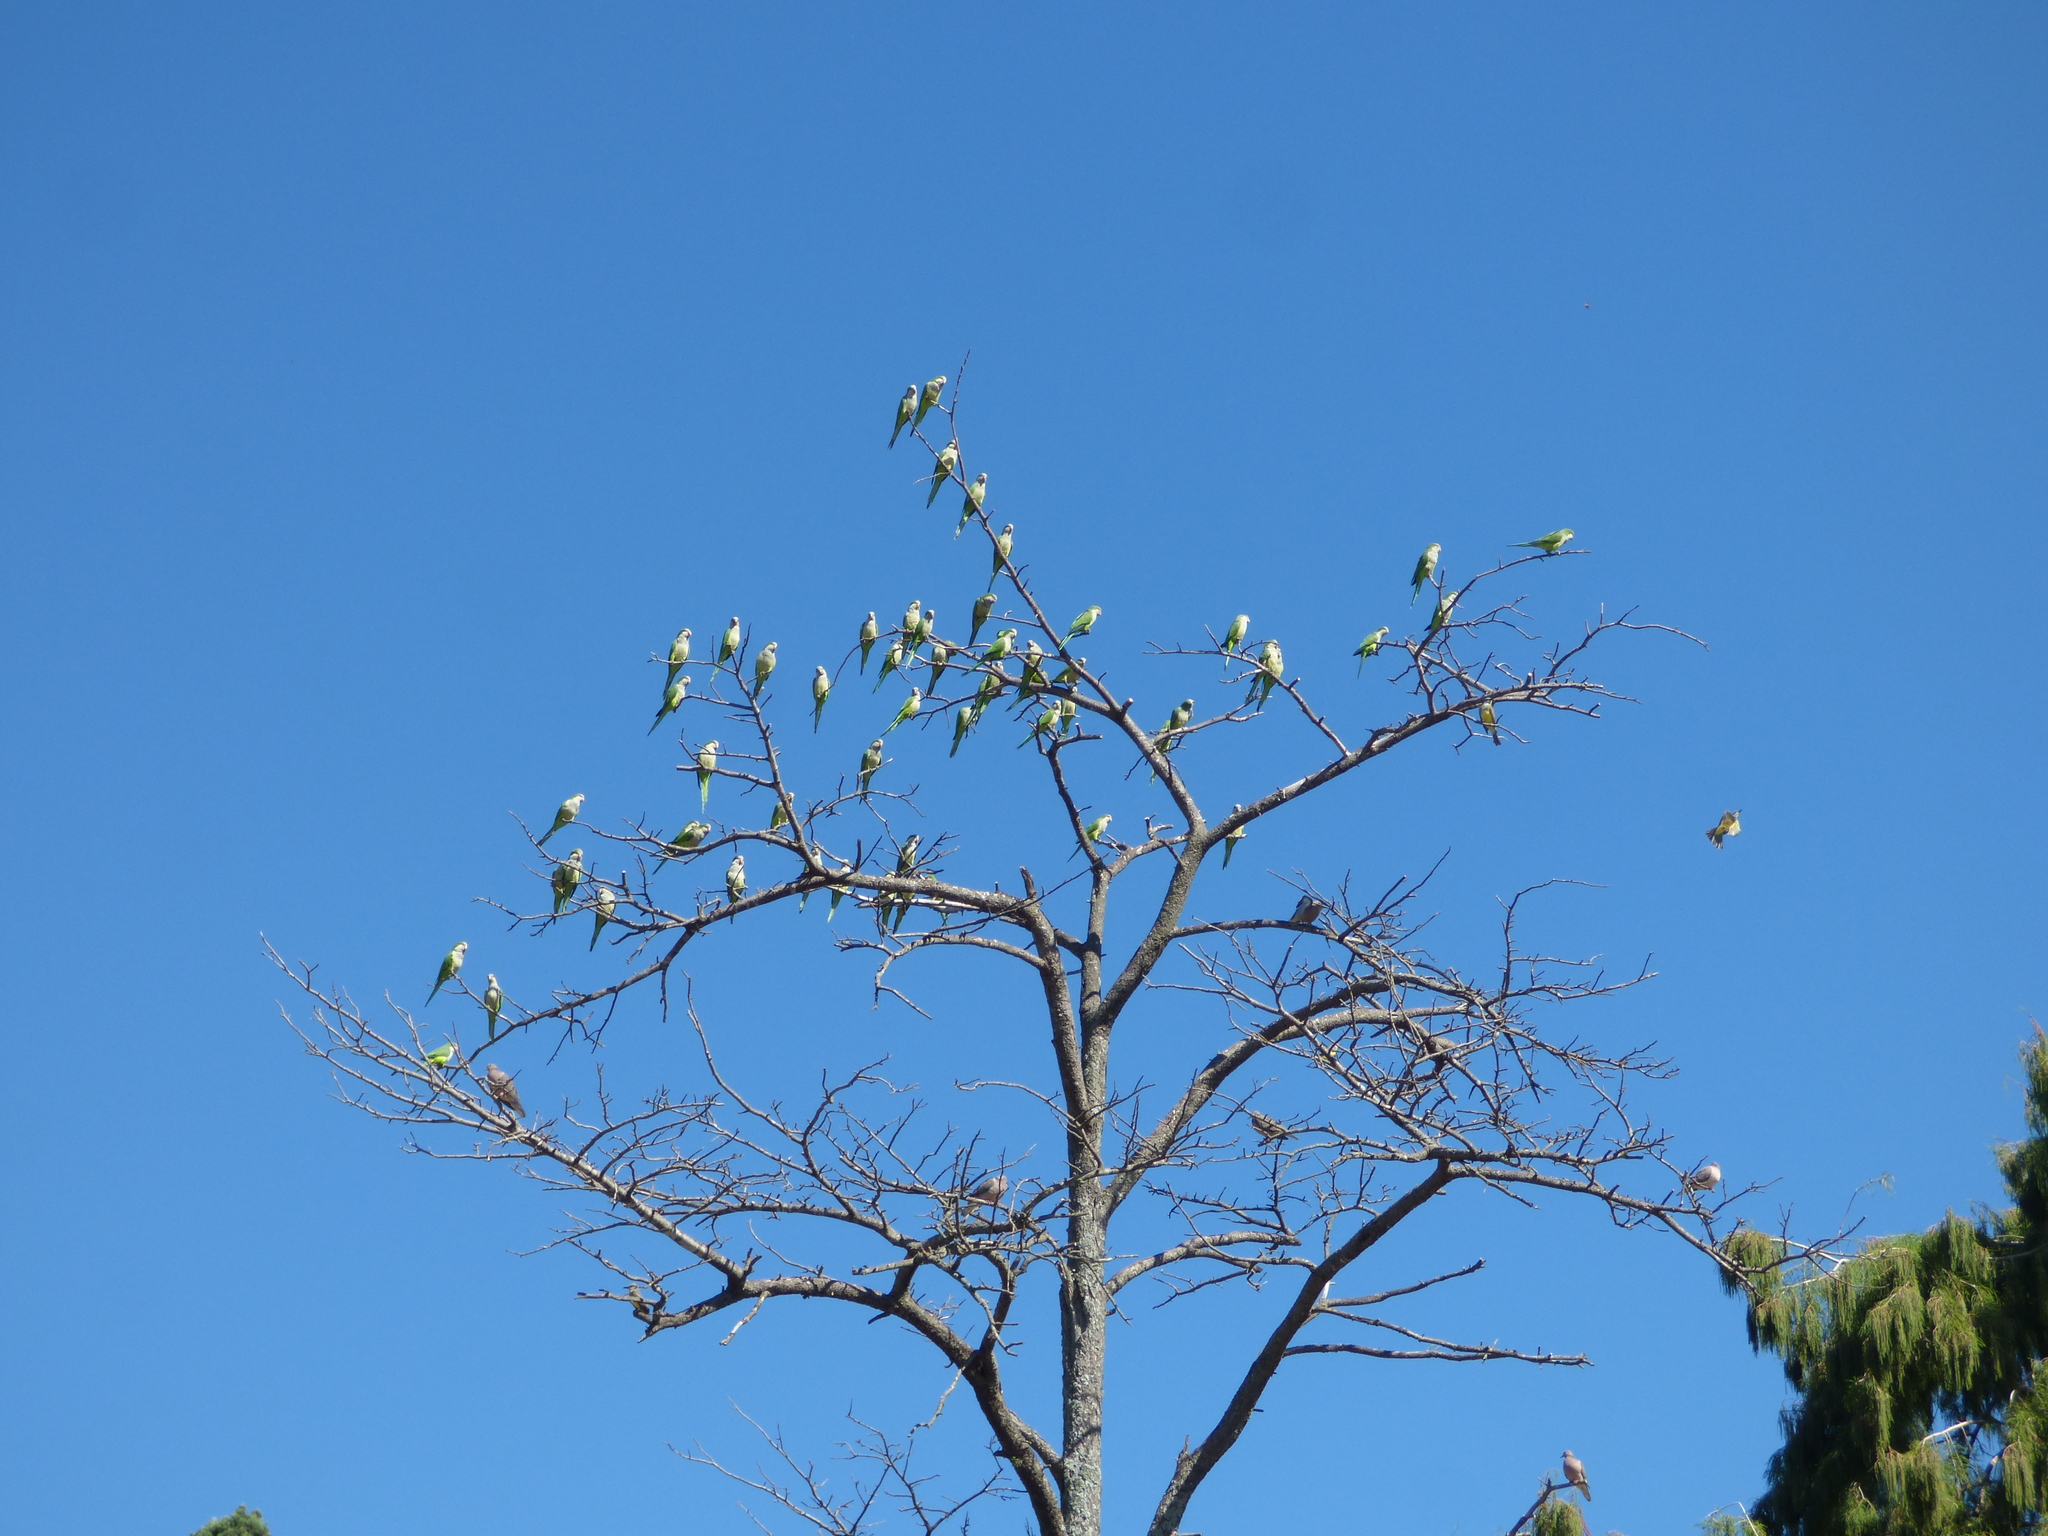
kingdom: Animalia
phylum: Chordata
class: Aves
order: Psittaciformes
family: Psittacidae
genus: Myiopsitta
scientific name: Myiopsitta monachus
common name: Monk parakeet
